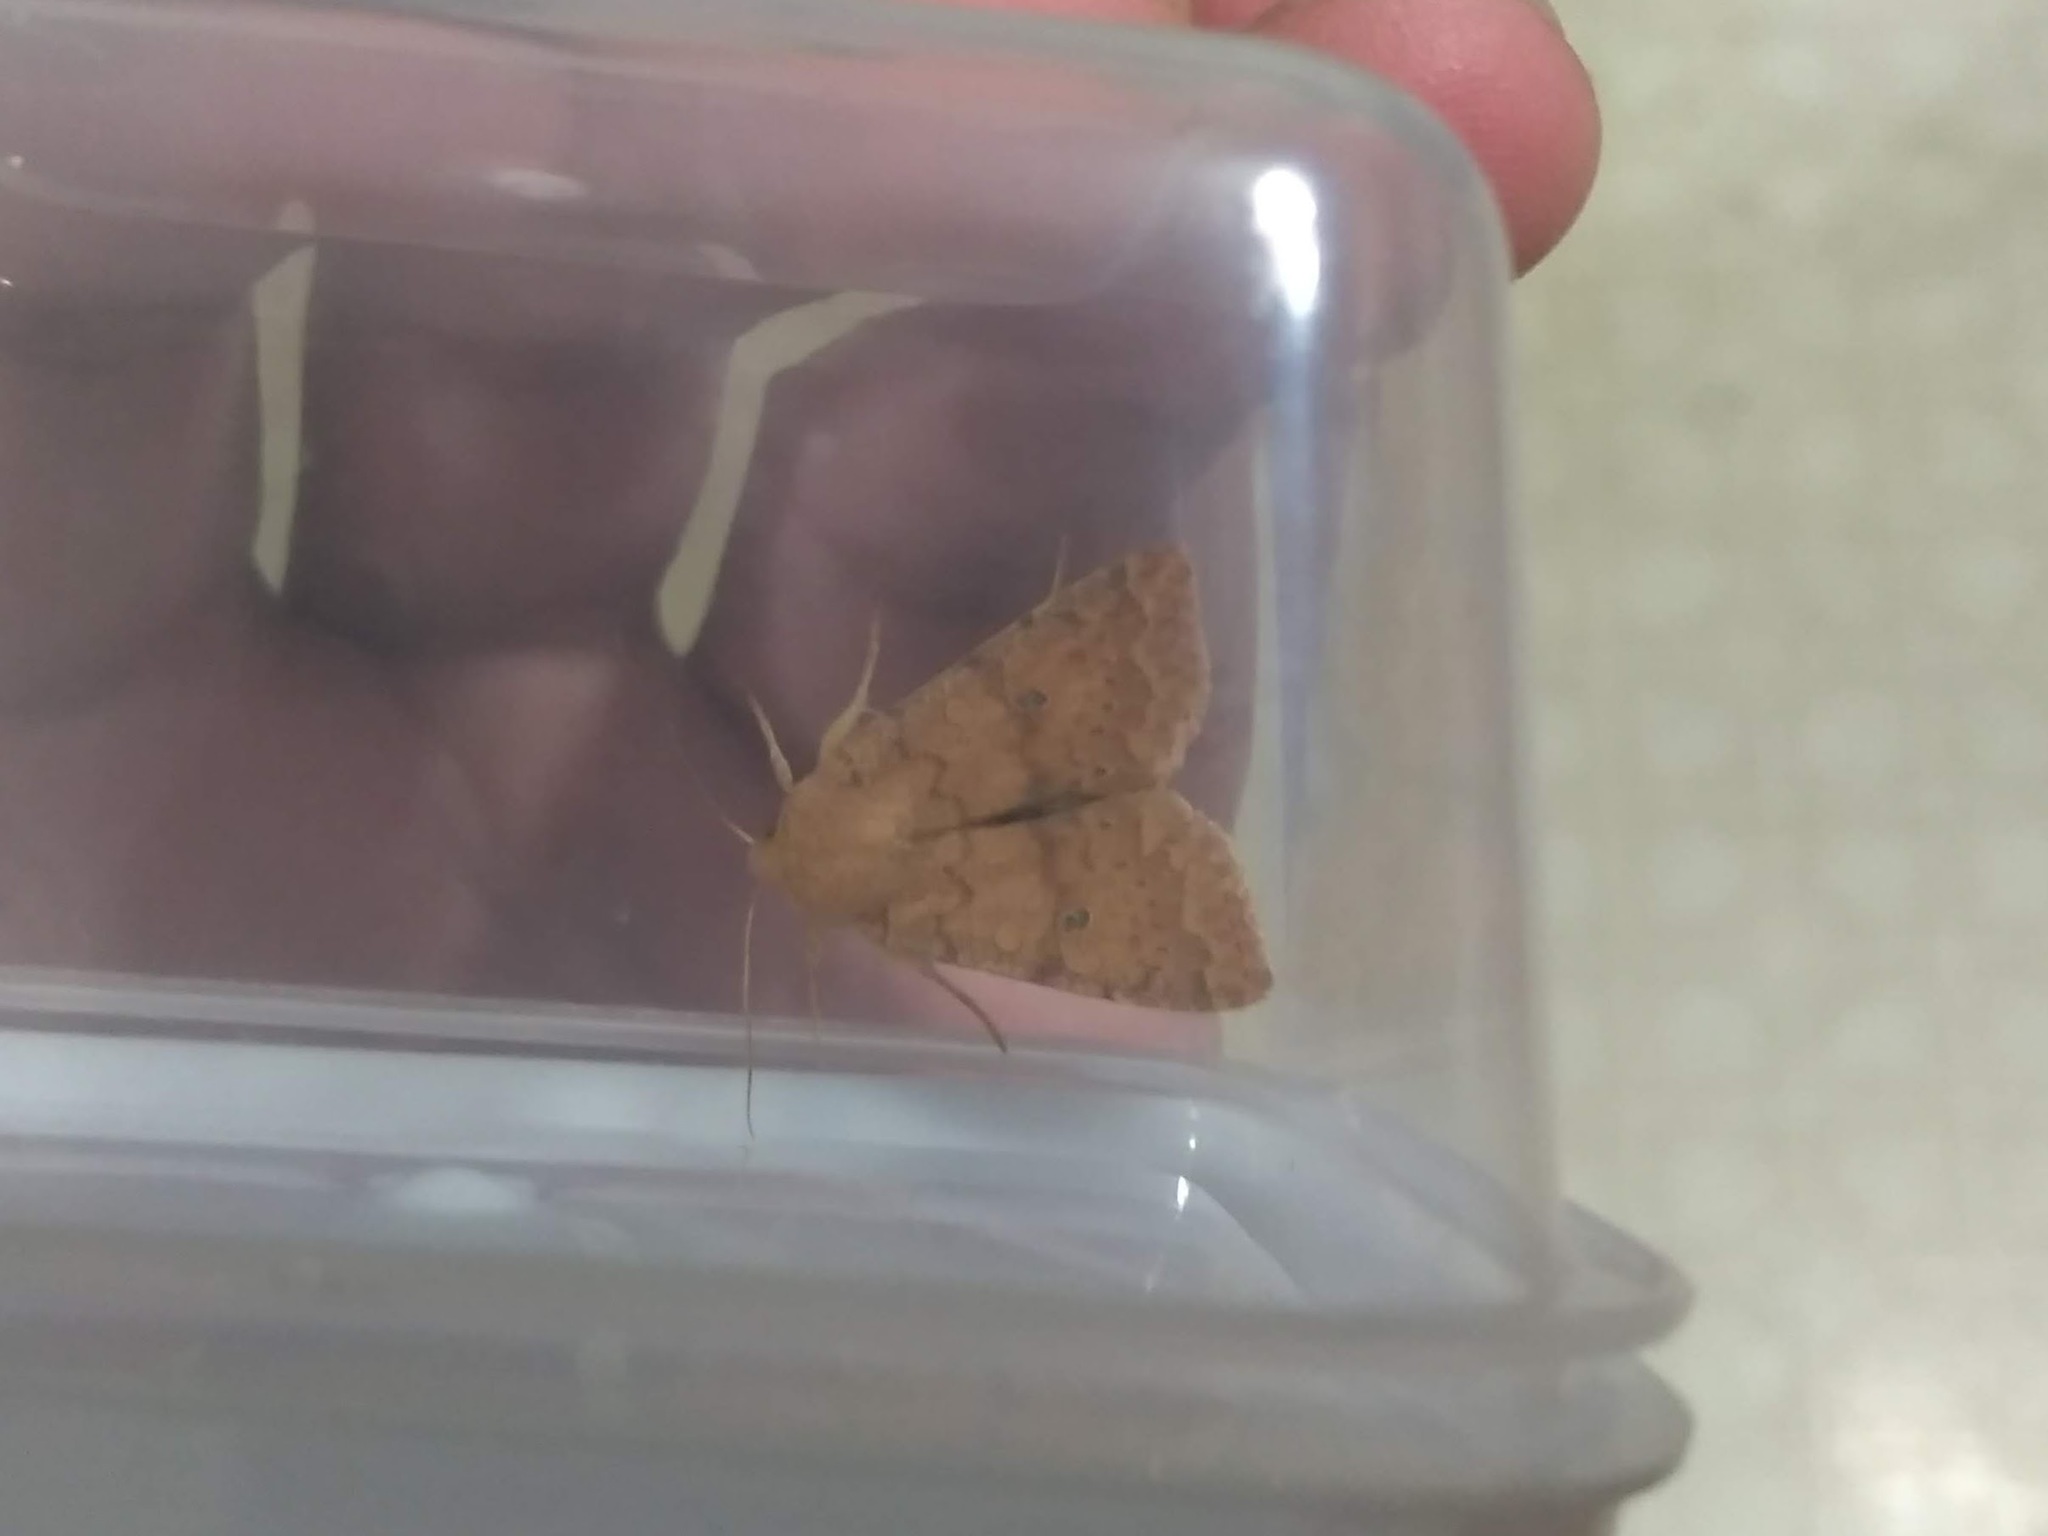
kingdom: Animalia
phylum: Arthropoda
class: Insecta
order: Lepidoptera
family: Noctuidae
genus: Agrochola
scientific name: Agrochola bicolorago
